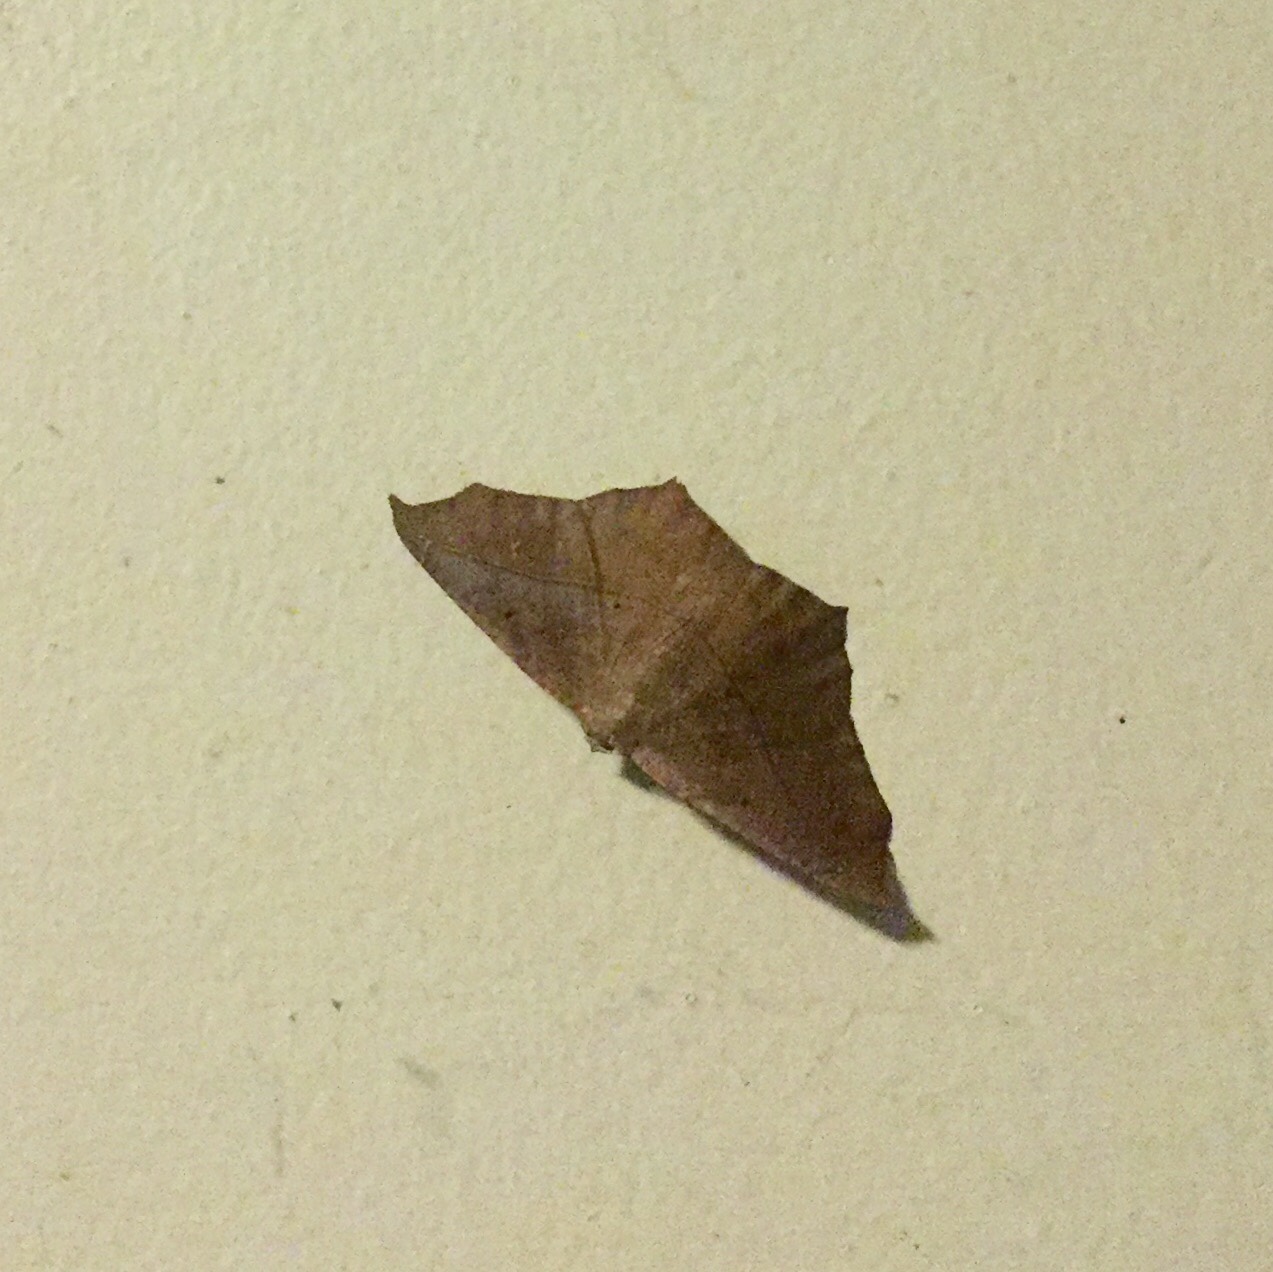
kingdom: Animalia
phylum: Arthropoda
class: Insecta
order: Lepidoptera
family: Geometridae
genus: Prochoerodes
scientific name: Prochoerodes lineola
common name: Large maple spanworm
